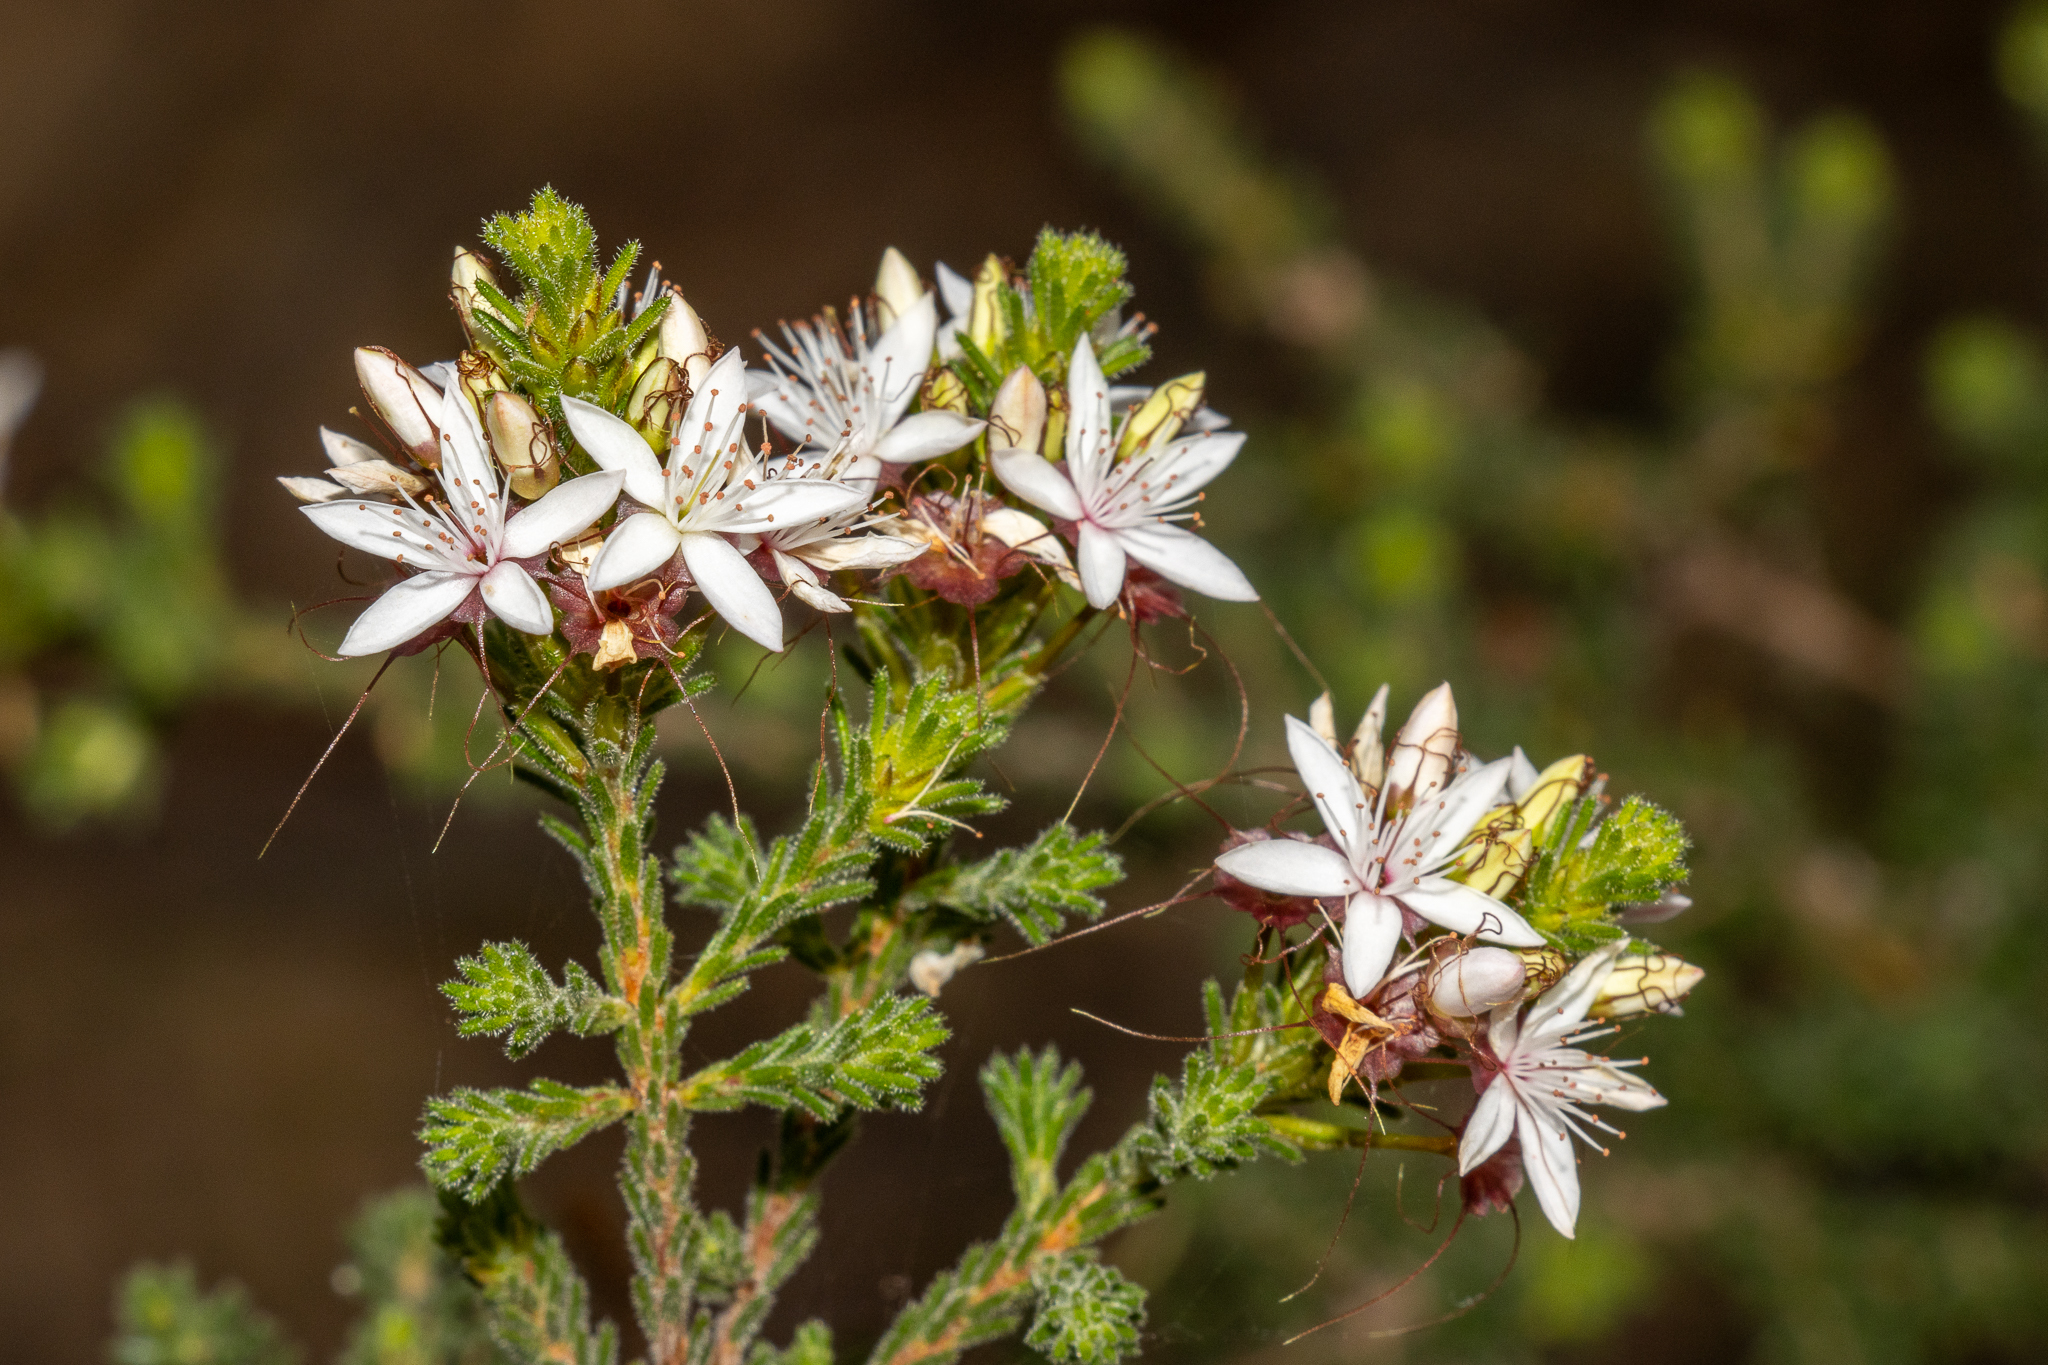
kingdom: Plantae
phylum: Tracheophyta
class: Magnoliopsida
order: Myrtales
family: Myrtaceae
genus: Calytrix
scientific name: Calytrix tetragona
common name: Common fringe myrtle
